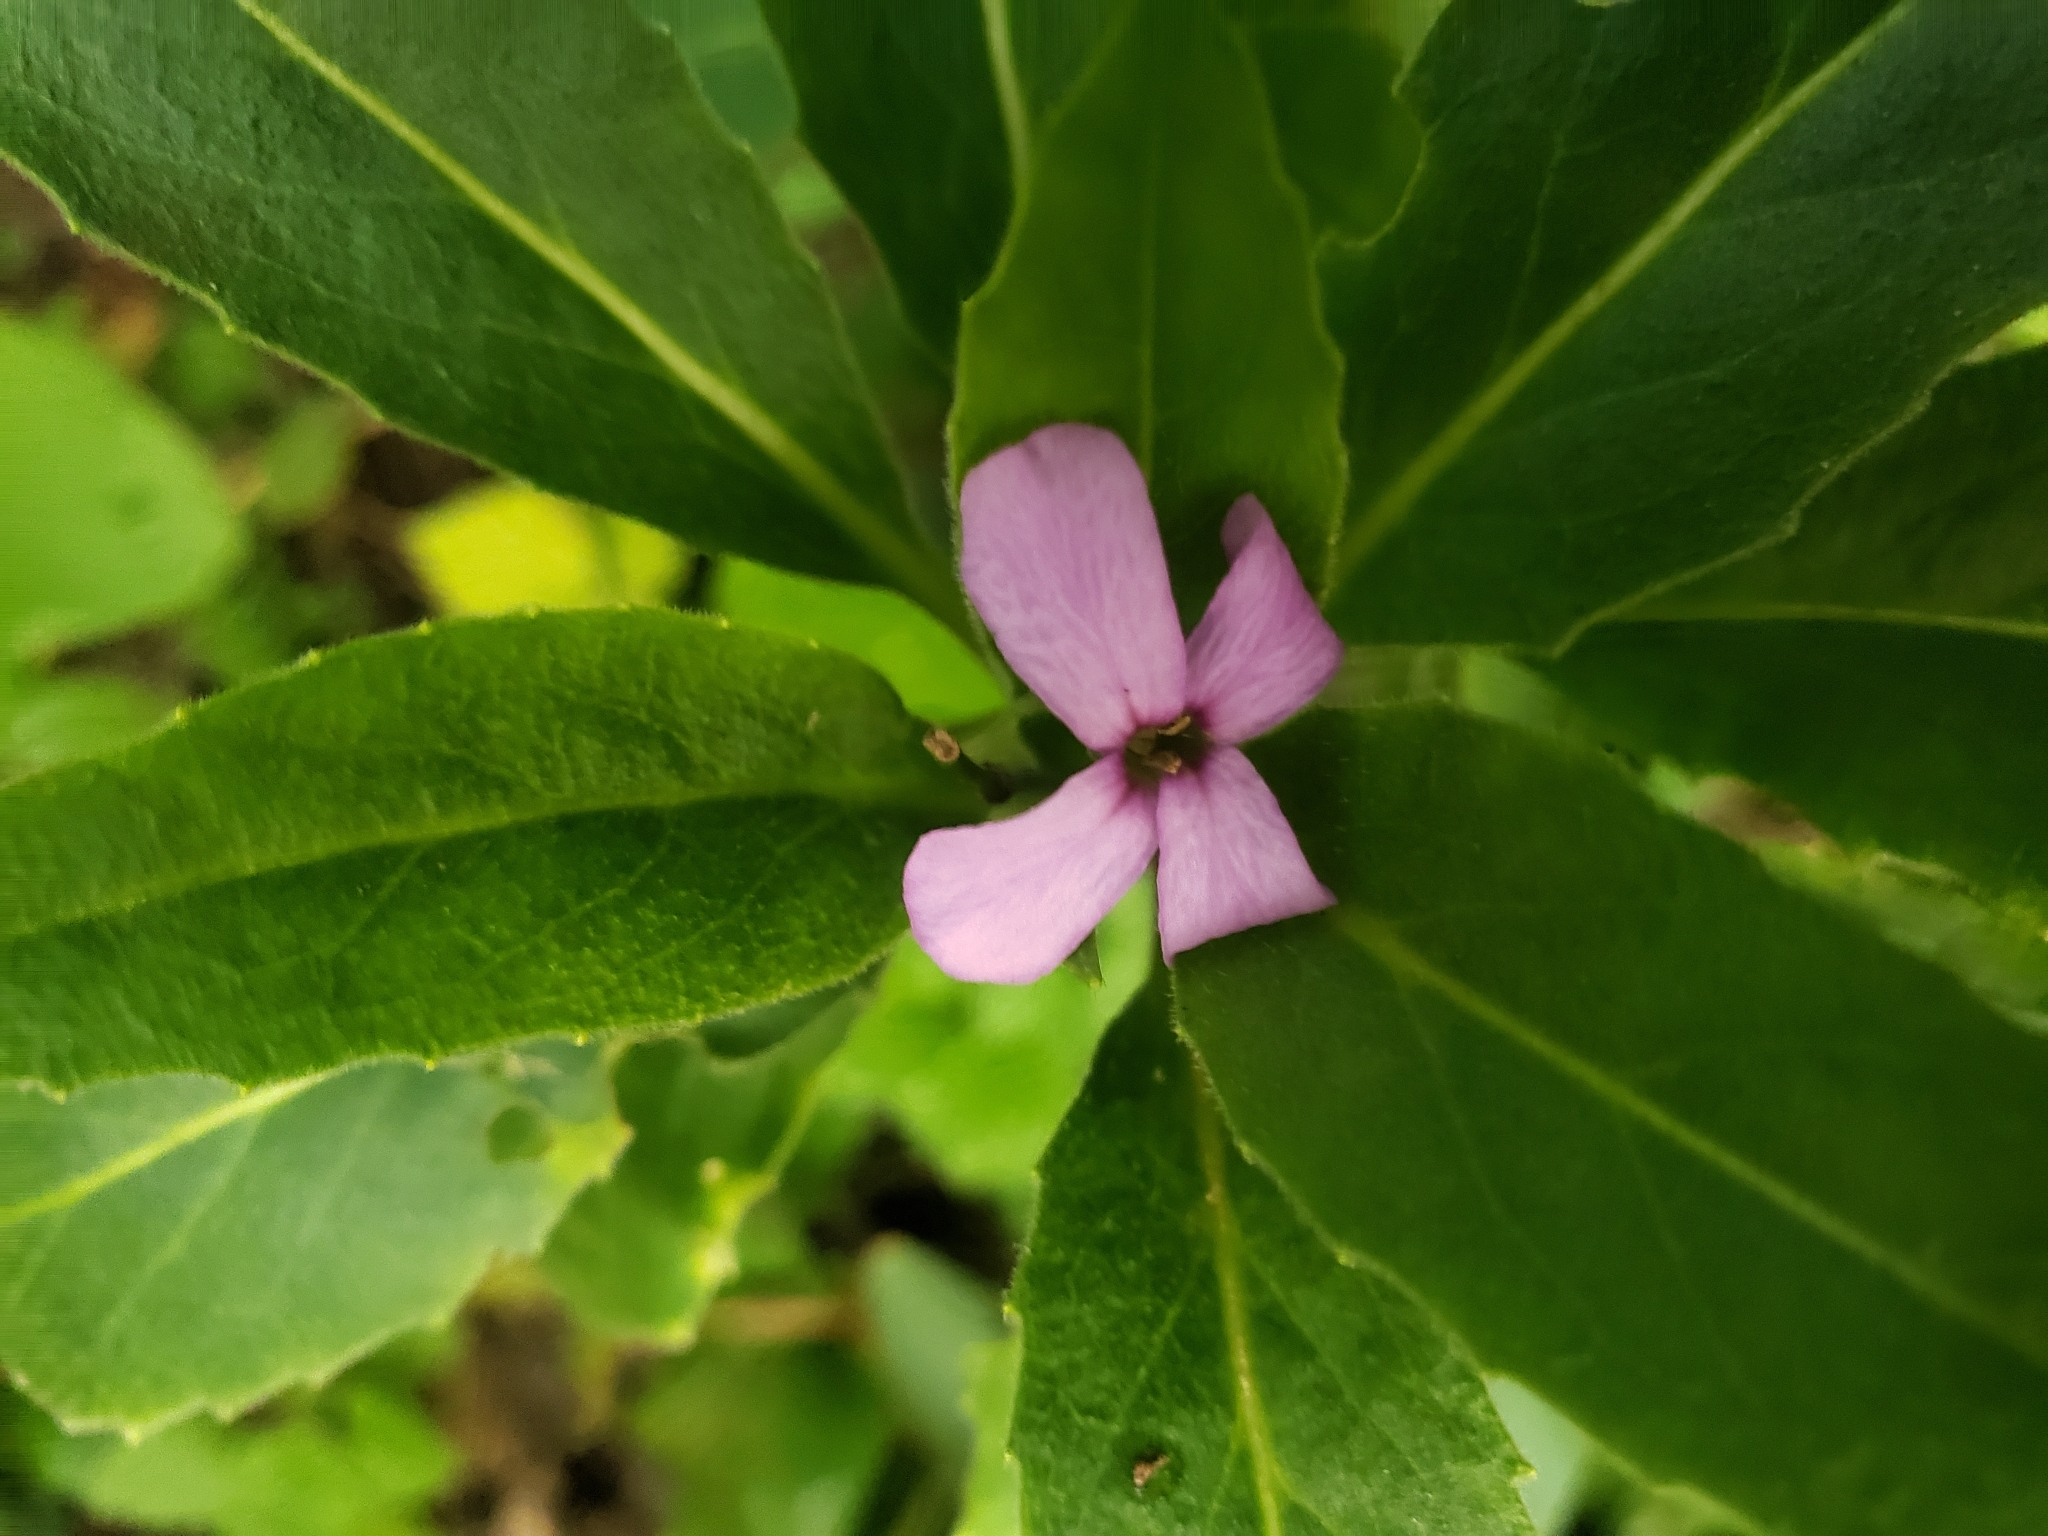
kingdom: Plantae
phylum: Tracheophyta
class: Magnoliopsida
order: Brassicales
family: Brassicaceae
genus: Hesperis
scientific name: Hesperis matronalis
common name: Dame's-violet
